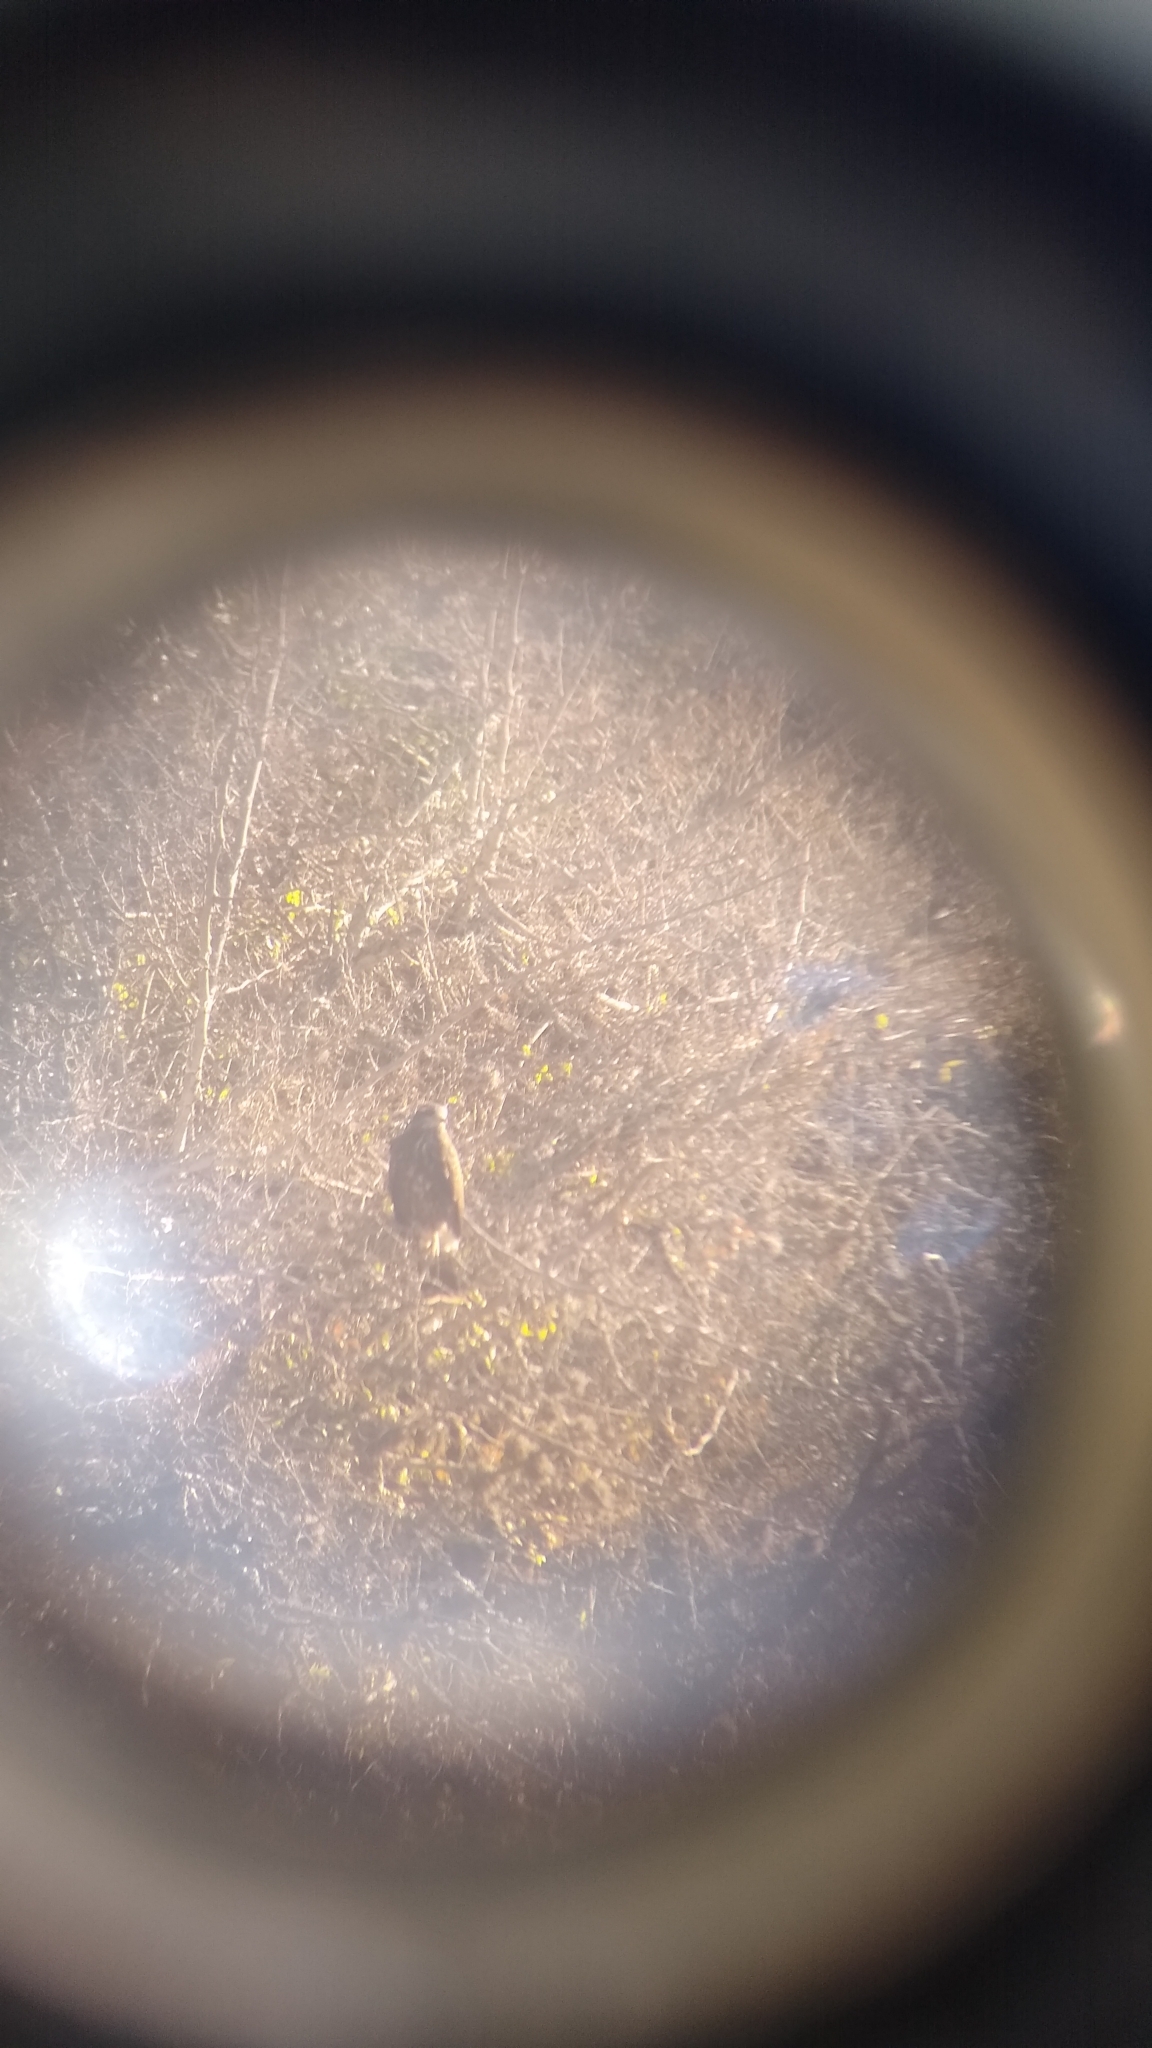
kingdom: Animalia
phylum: Chordata
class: Aves
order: Accipitriformes
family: Accipitridae
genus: Rostrhamus
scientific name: Rostrhamus sociabilis
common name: Snail kite
